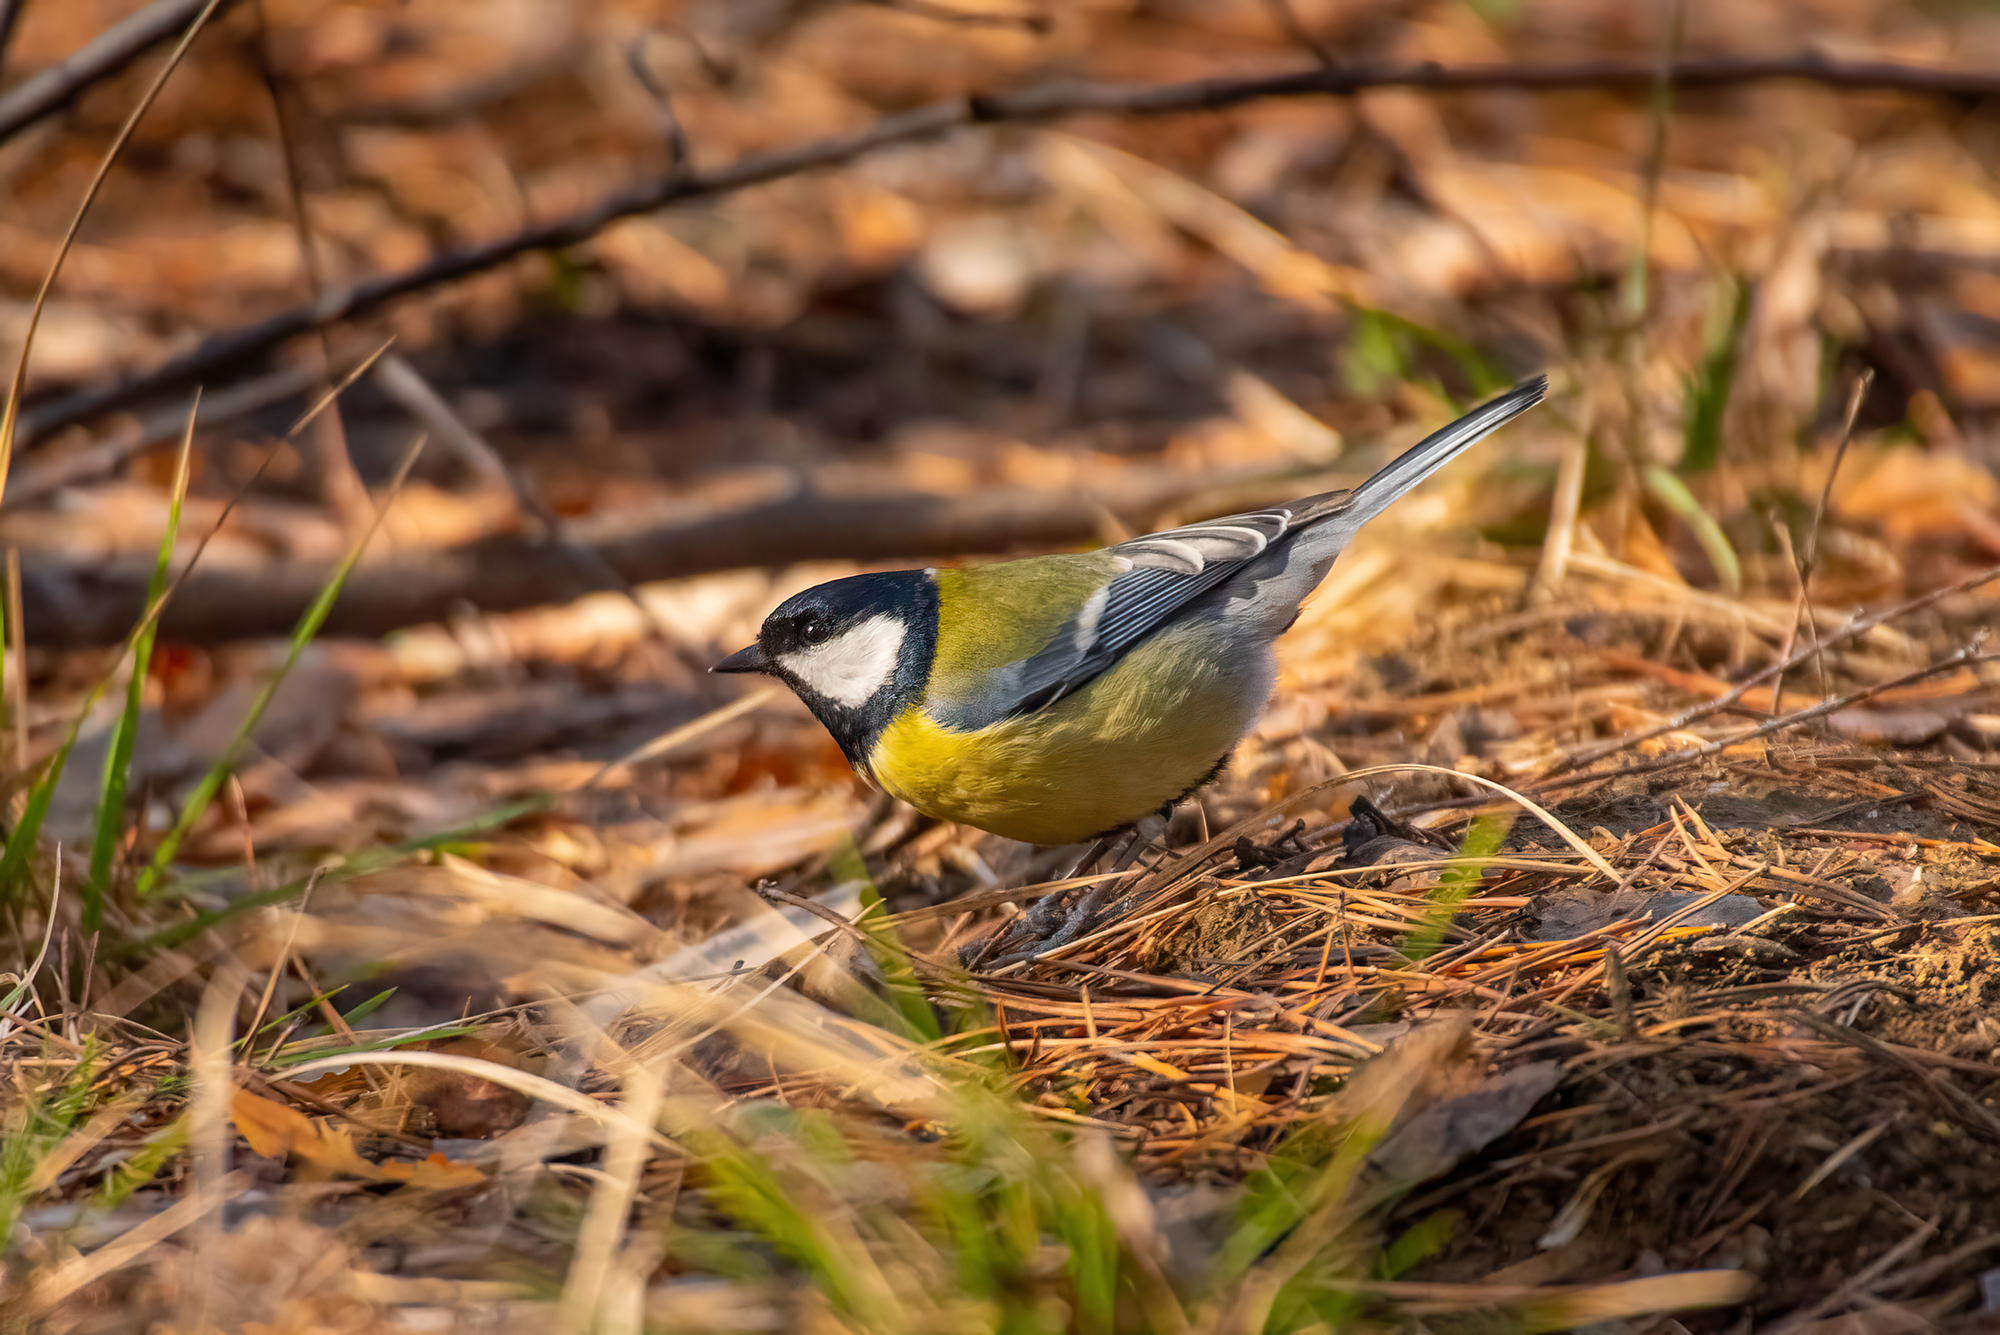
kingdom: Animalia
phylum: Chordata
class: Aves
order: Passeriformes
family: Paridae
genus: Parus
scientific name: Parus major
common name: Great tit
